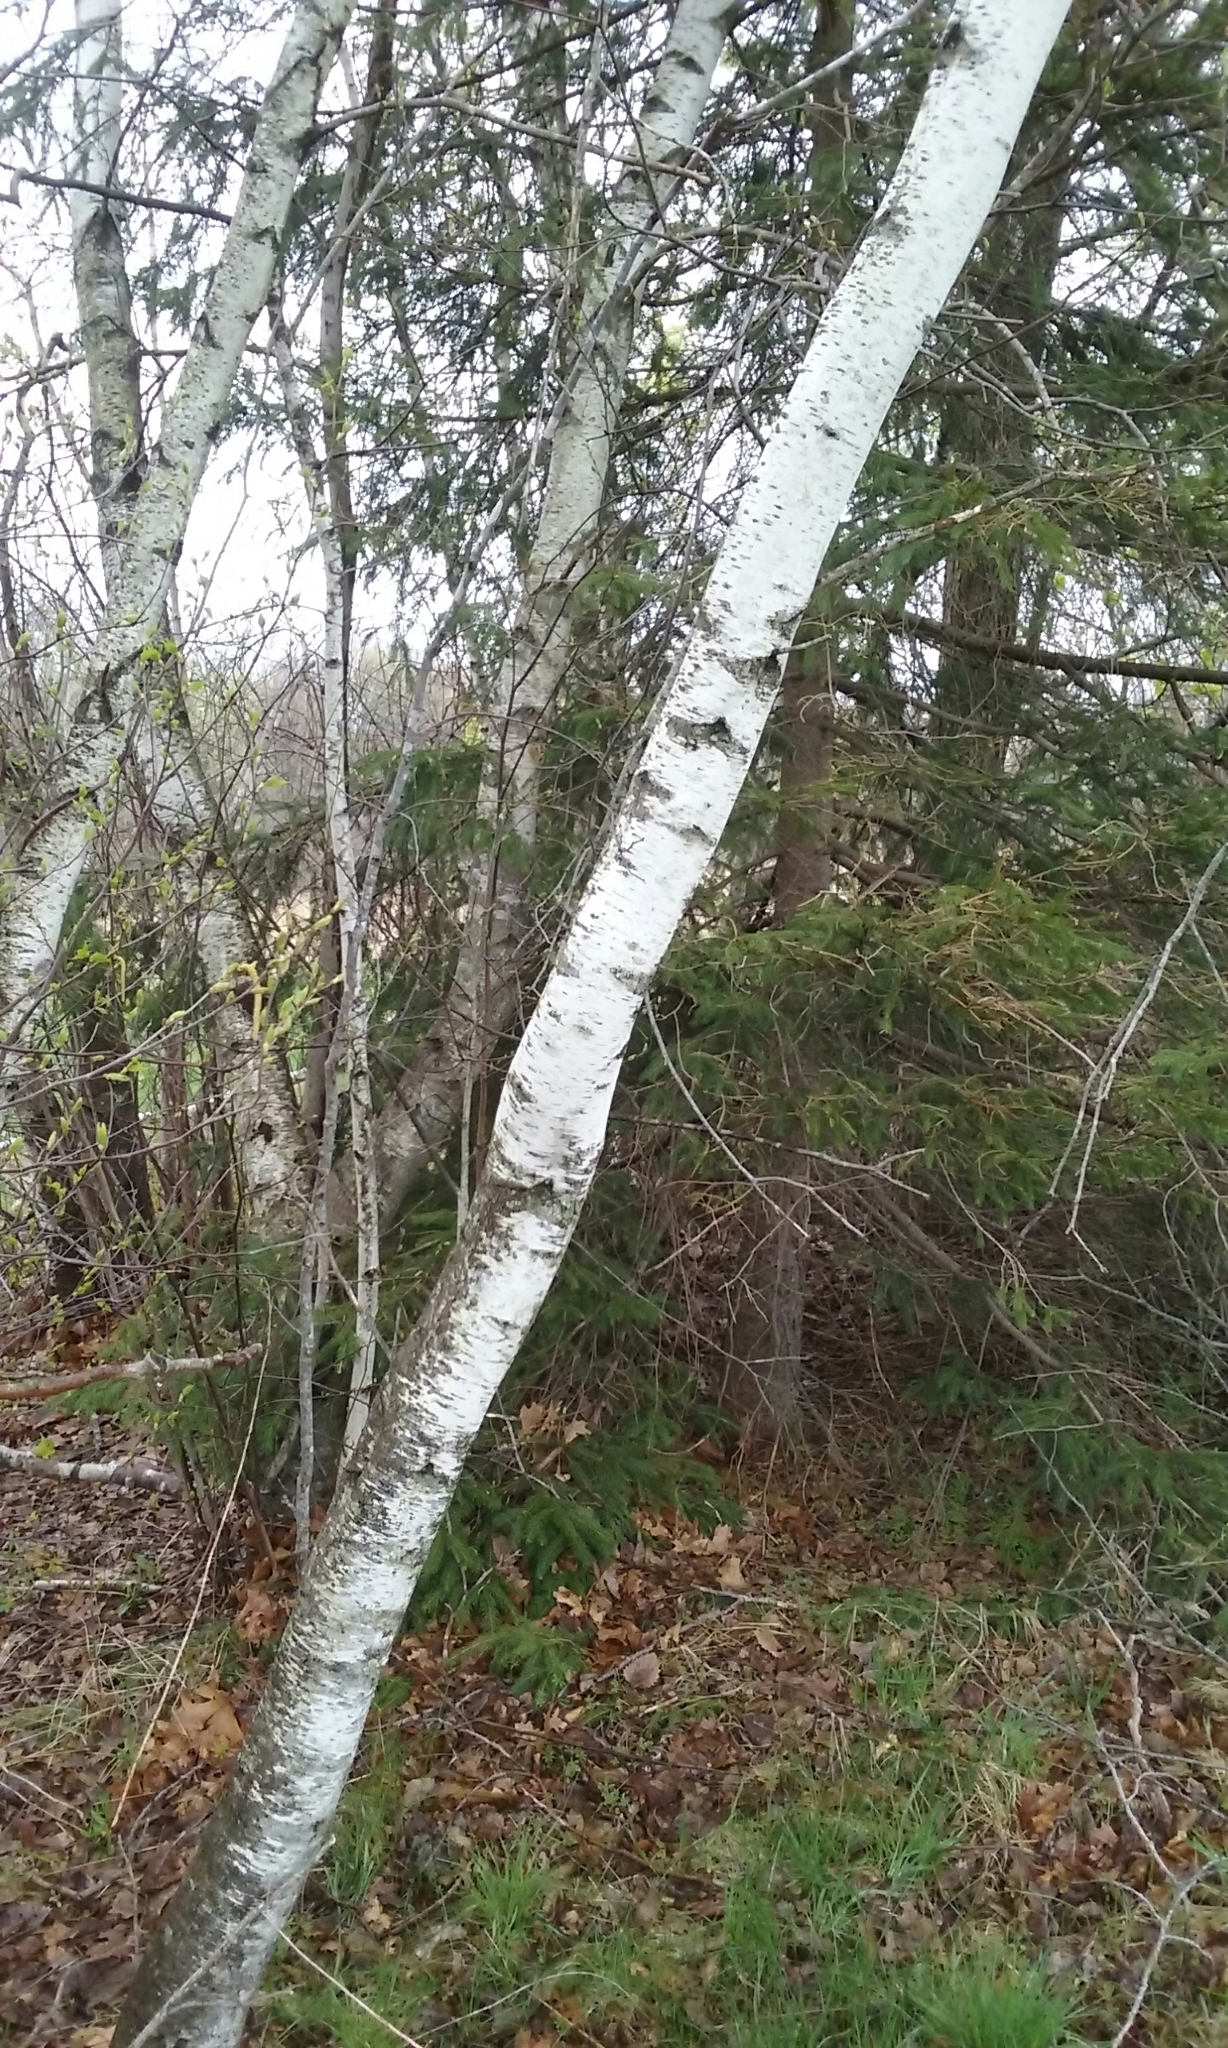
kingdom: Plantae
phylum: Tracheophyta
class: Magnoliopsida
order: Fagales
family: Betulaceae
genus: Betula
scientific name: Betula papyrifera
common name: Paper birch
